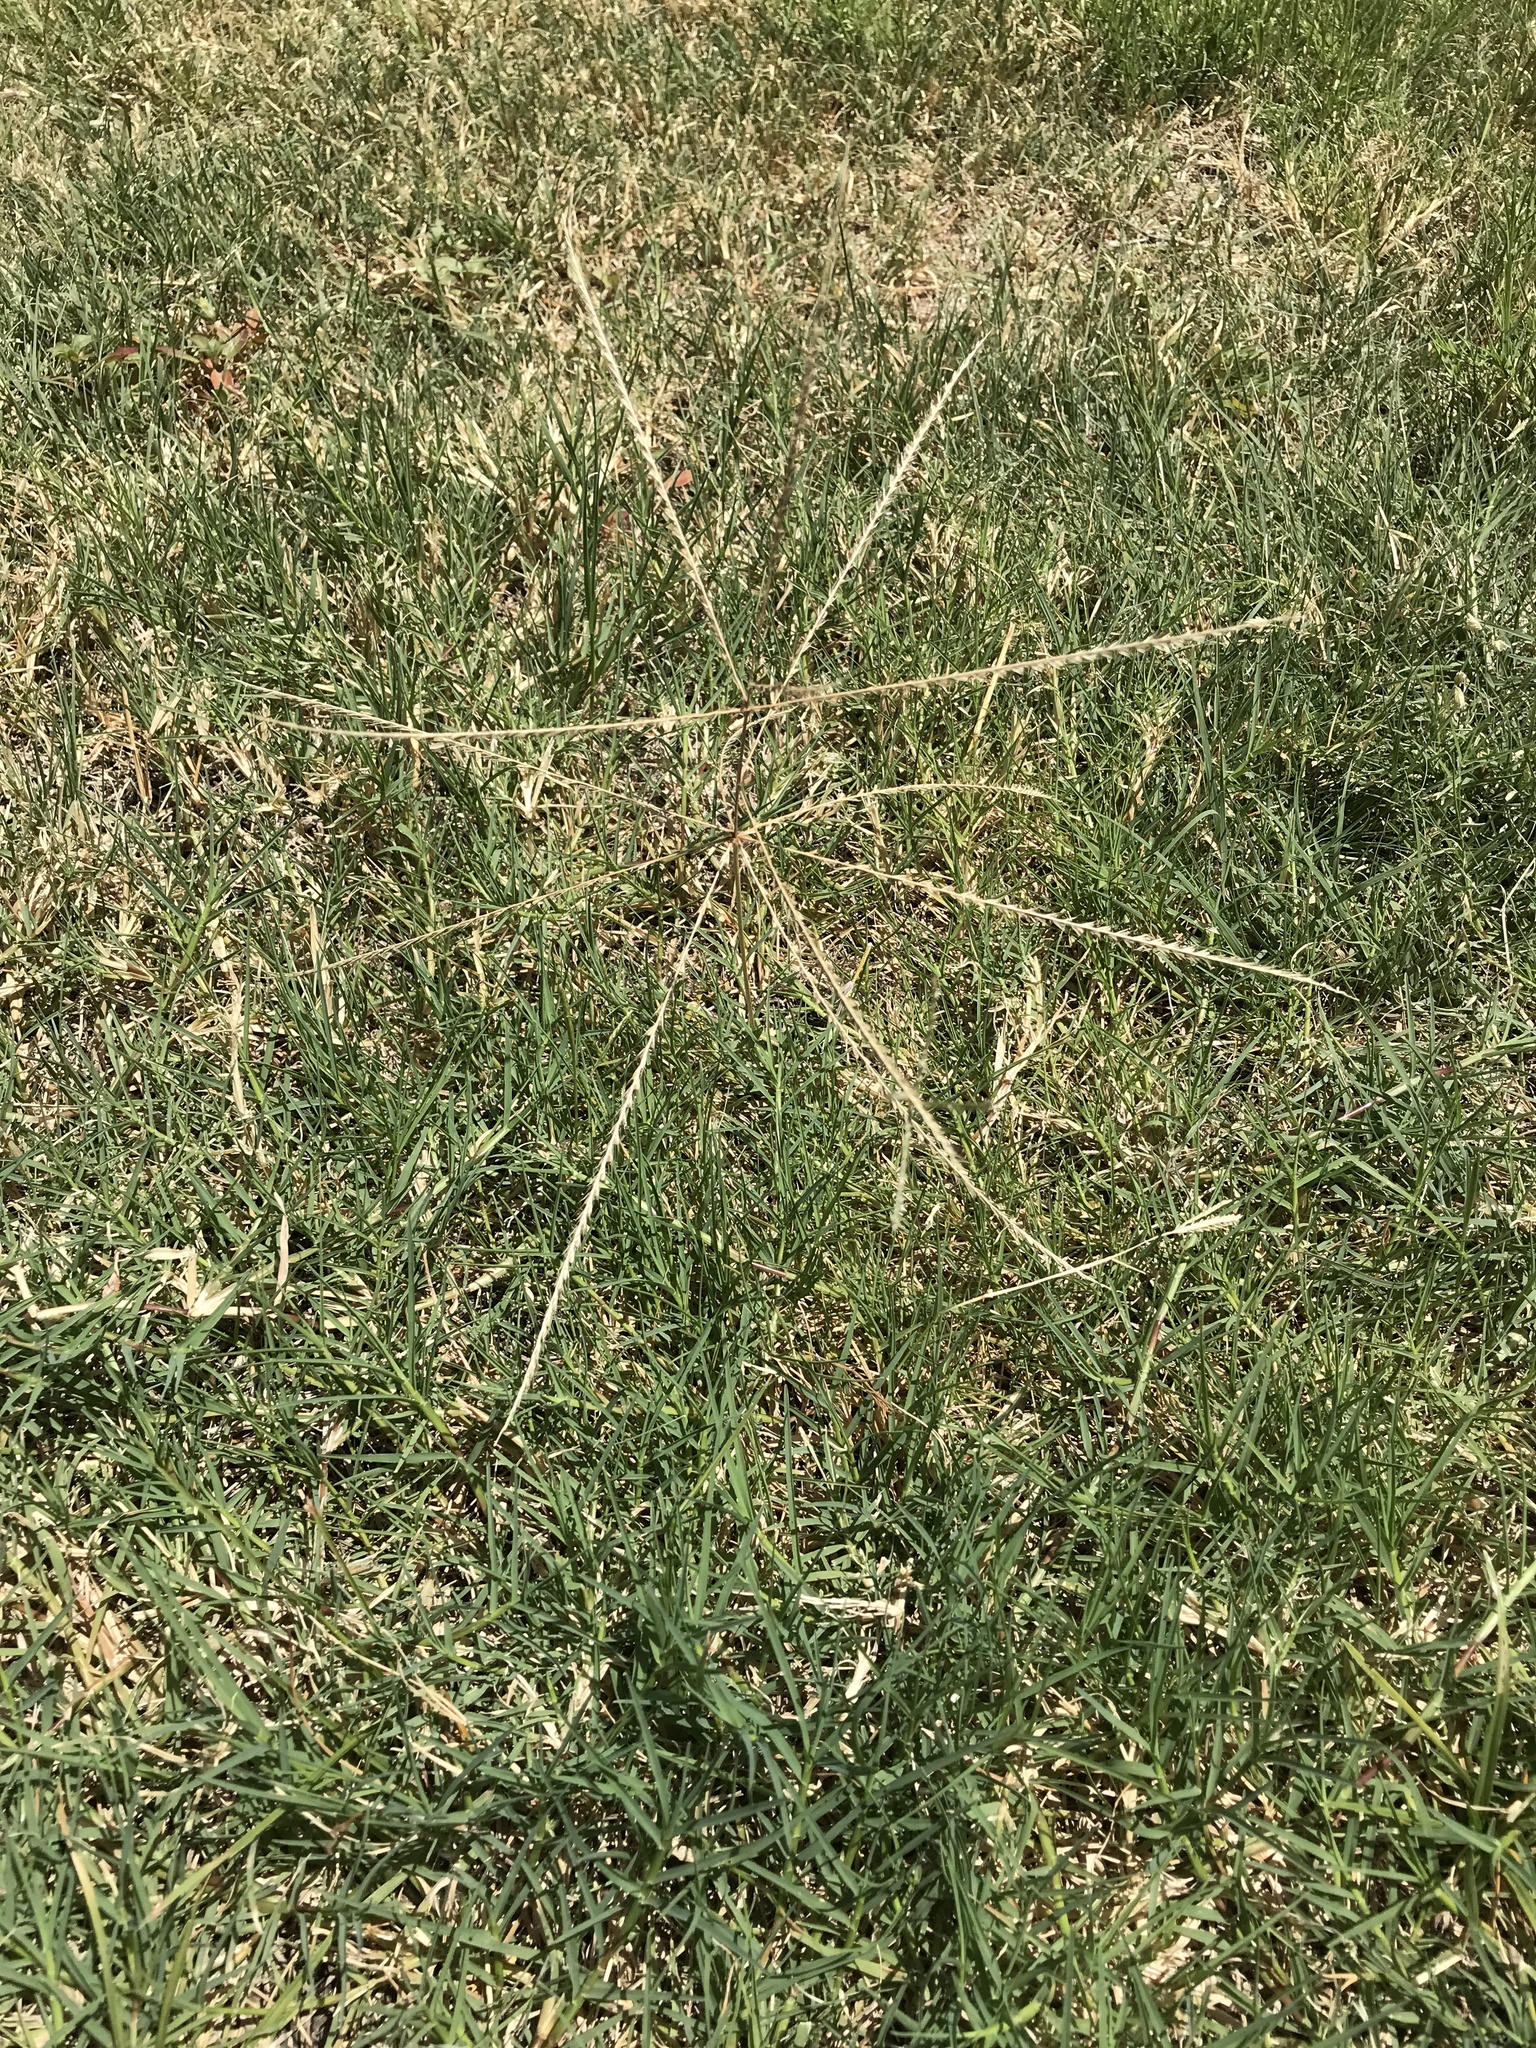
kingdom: Plantae
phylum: Tracheophyta
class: Liliopsida
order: Poales
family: Poaceae
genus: Chloris
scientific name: Chloris verticillata
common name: Tumble windmill grass
